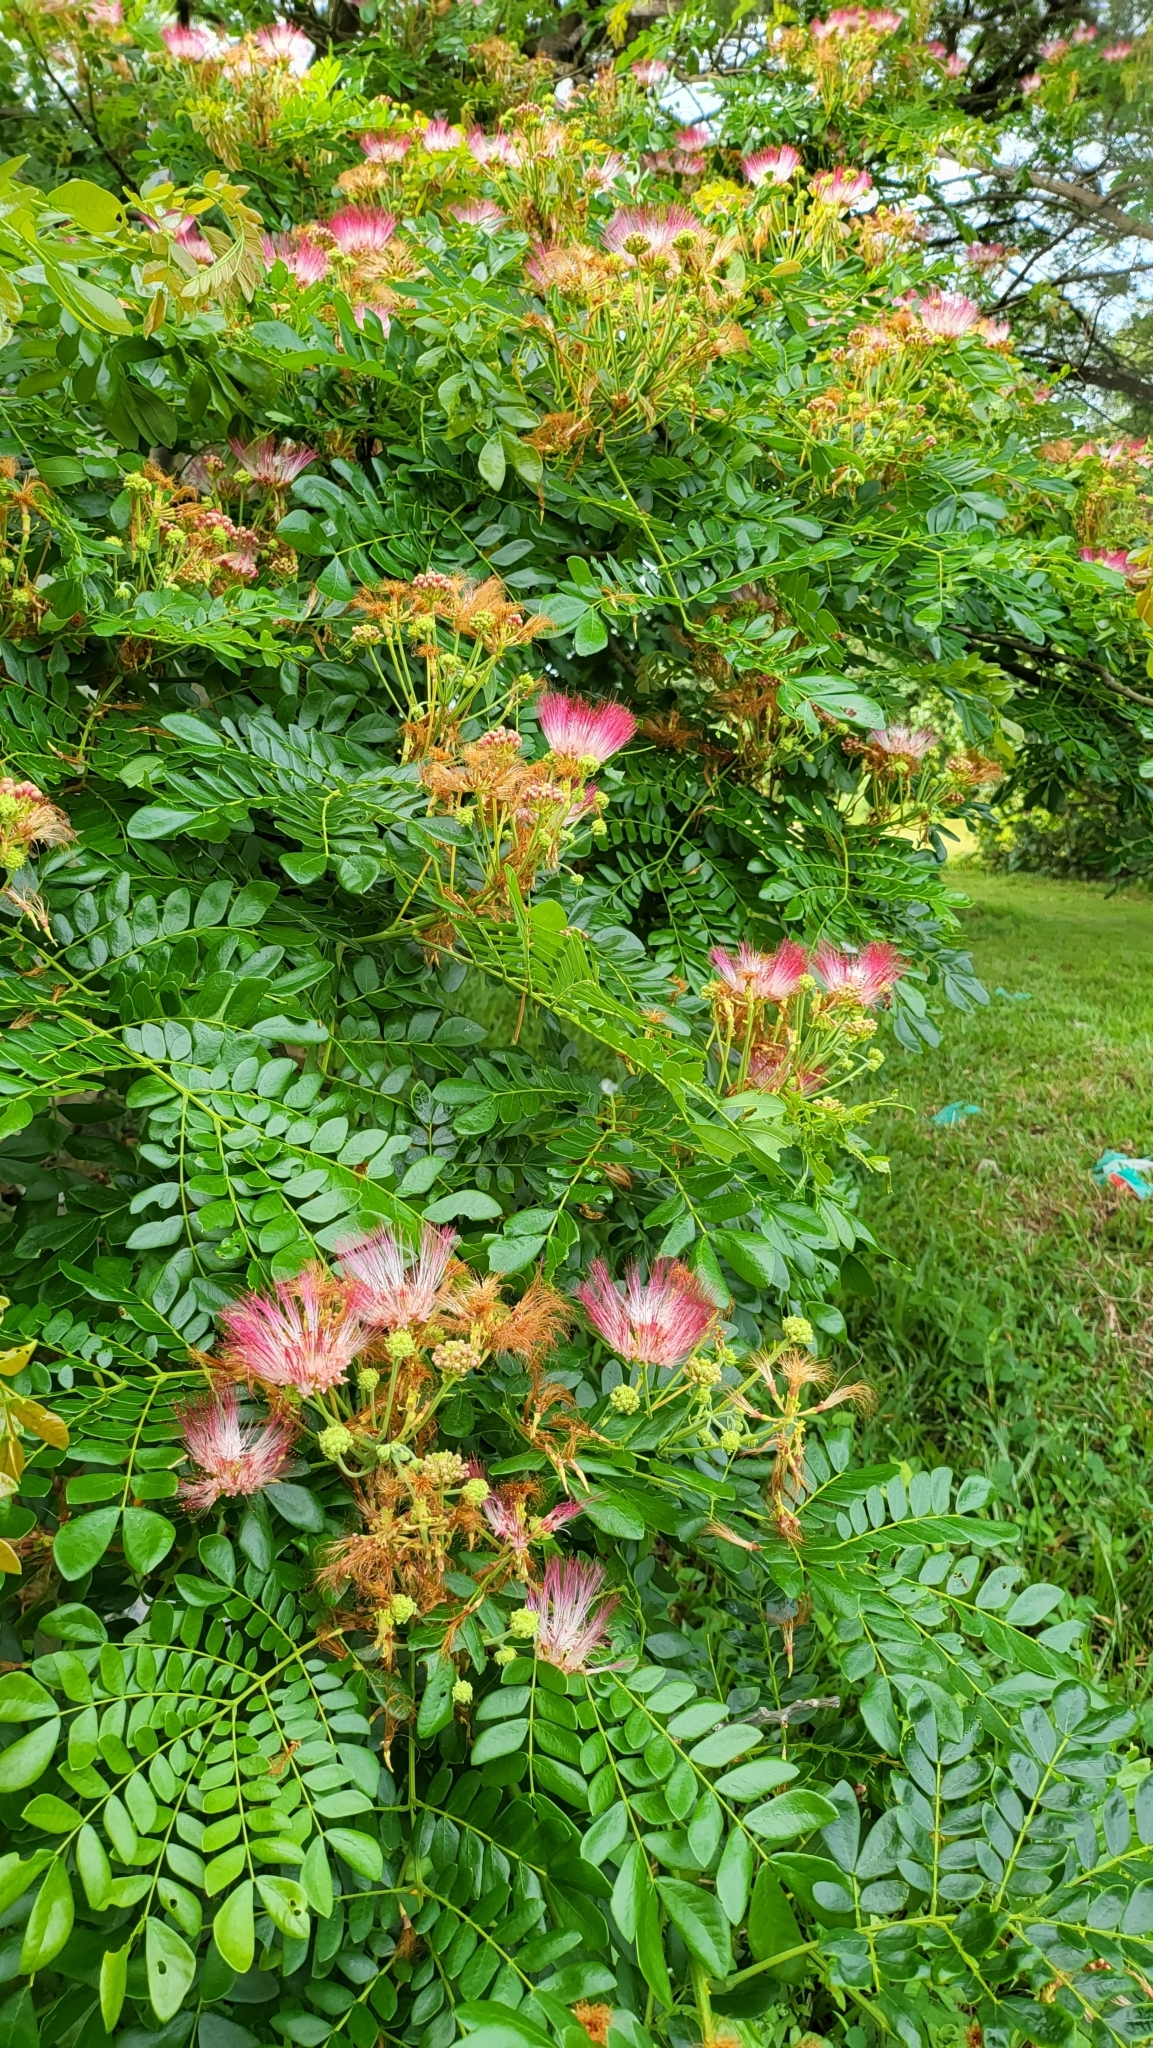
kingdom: Plantae
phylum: Tracheophyta
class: Magnoliopsida
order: Fabales
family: Fabaceae
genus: Samanea
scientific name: Samanea saman
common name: Raintree
